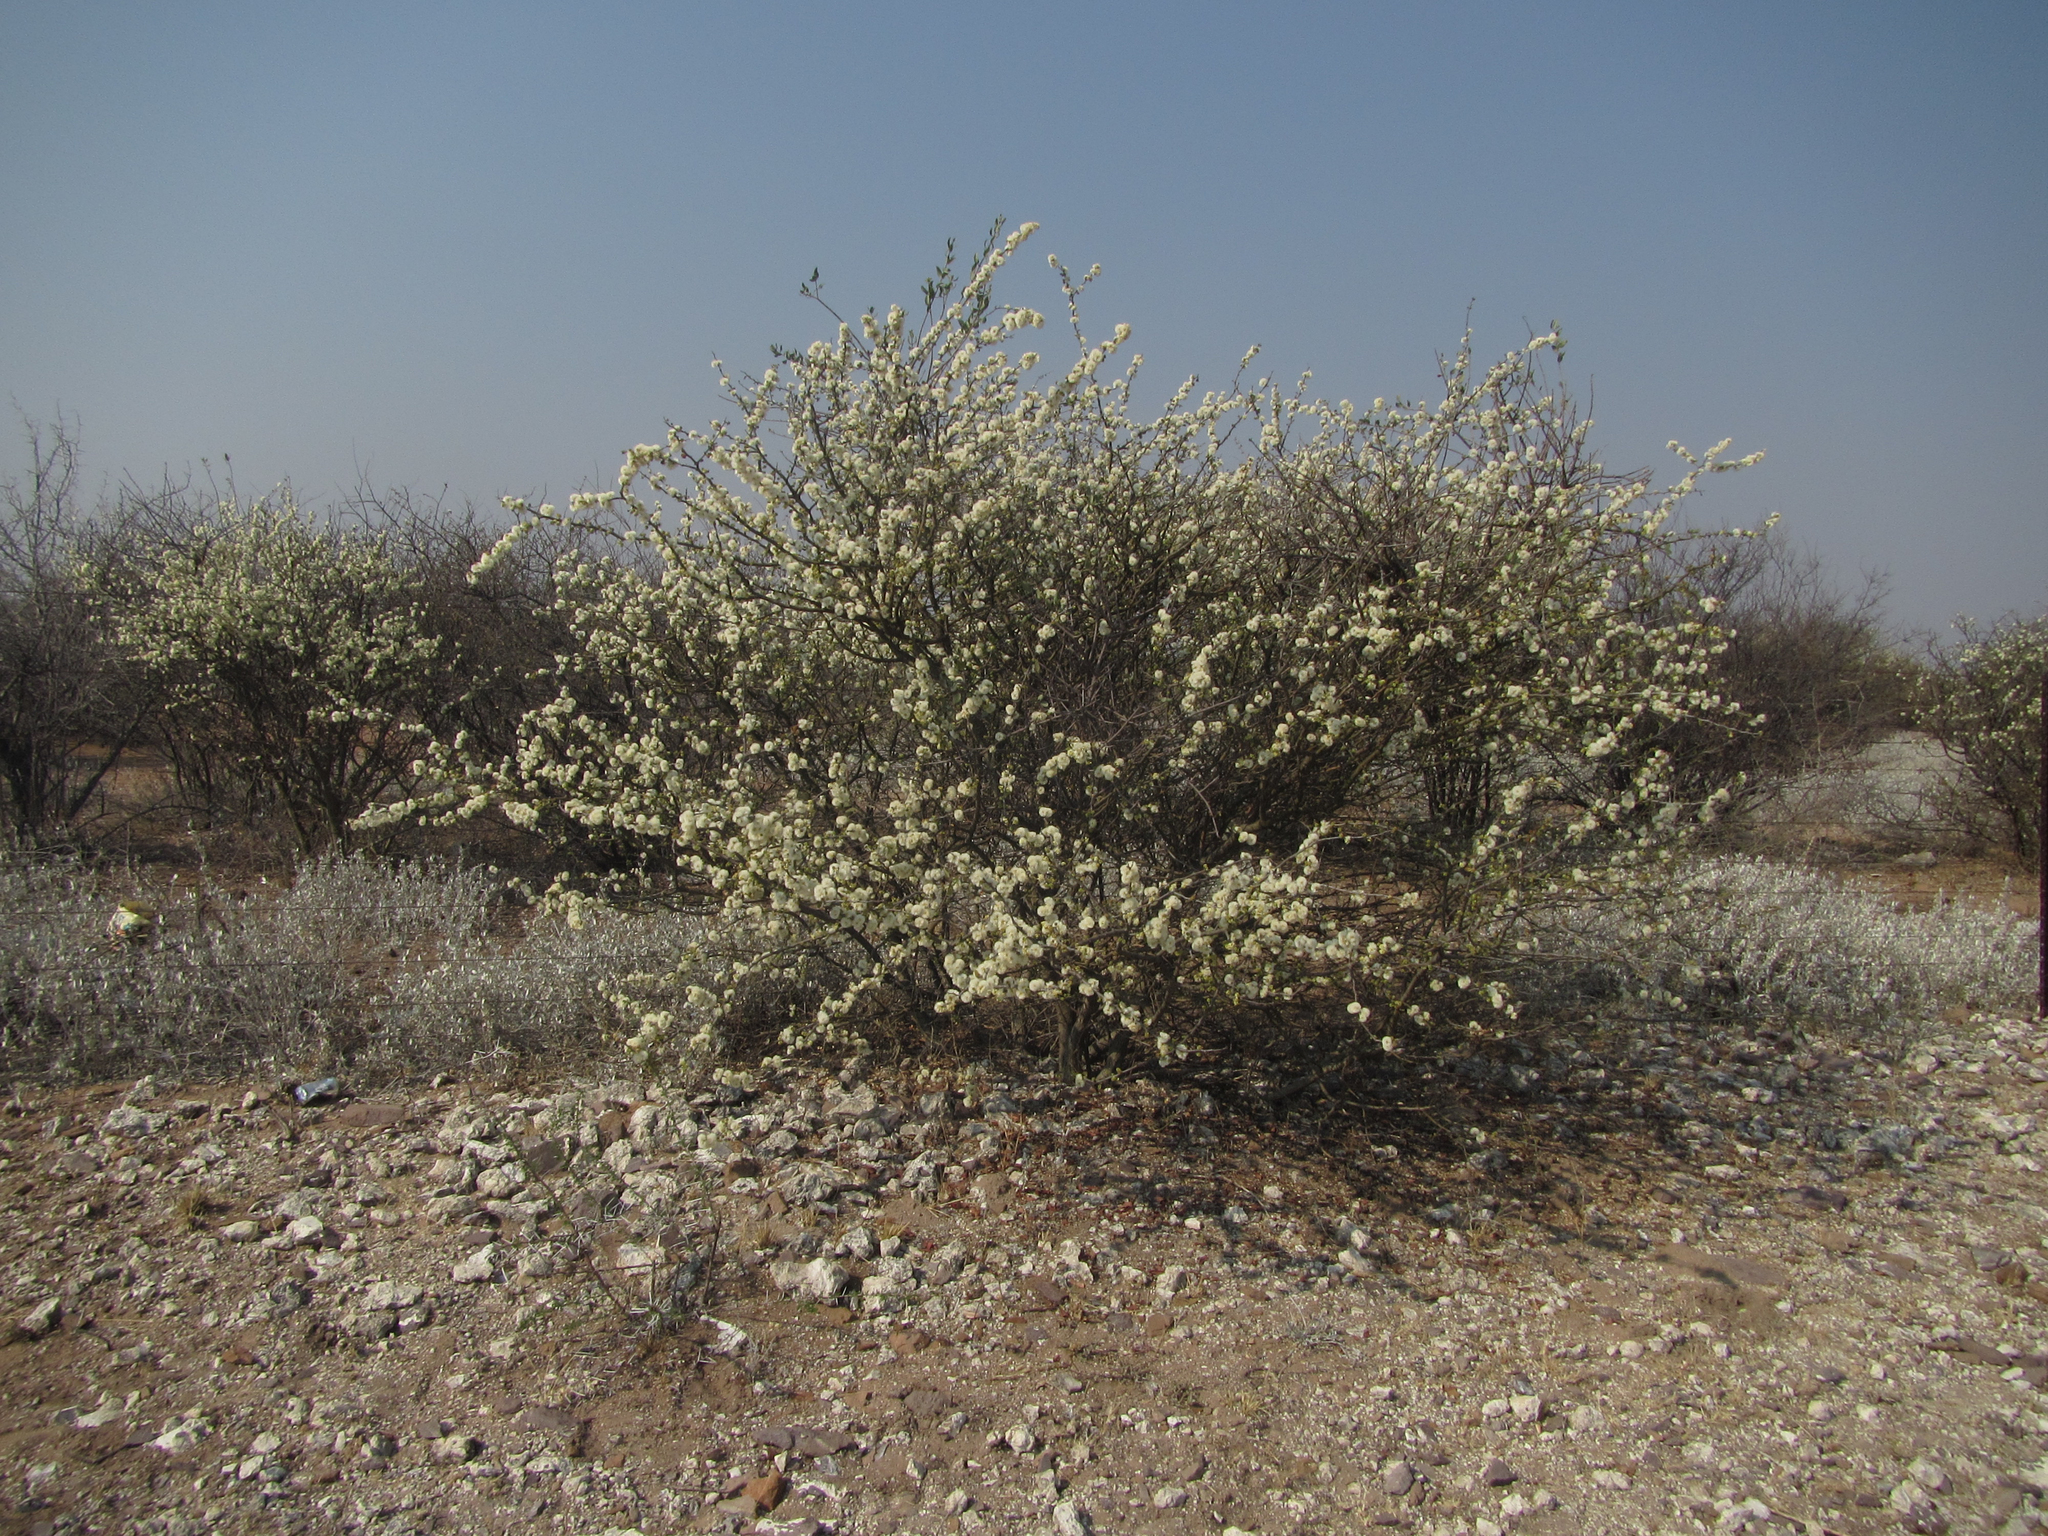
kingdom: Plantae
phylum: Tracheophyta
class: Magnoliopsida
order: Fabales
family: Fabaceae
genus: Senegalia
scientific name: Senegalia mellifera
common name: Hookthorn
